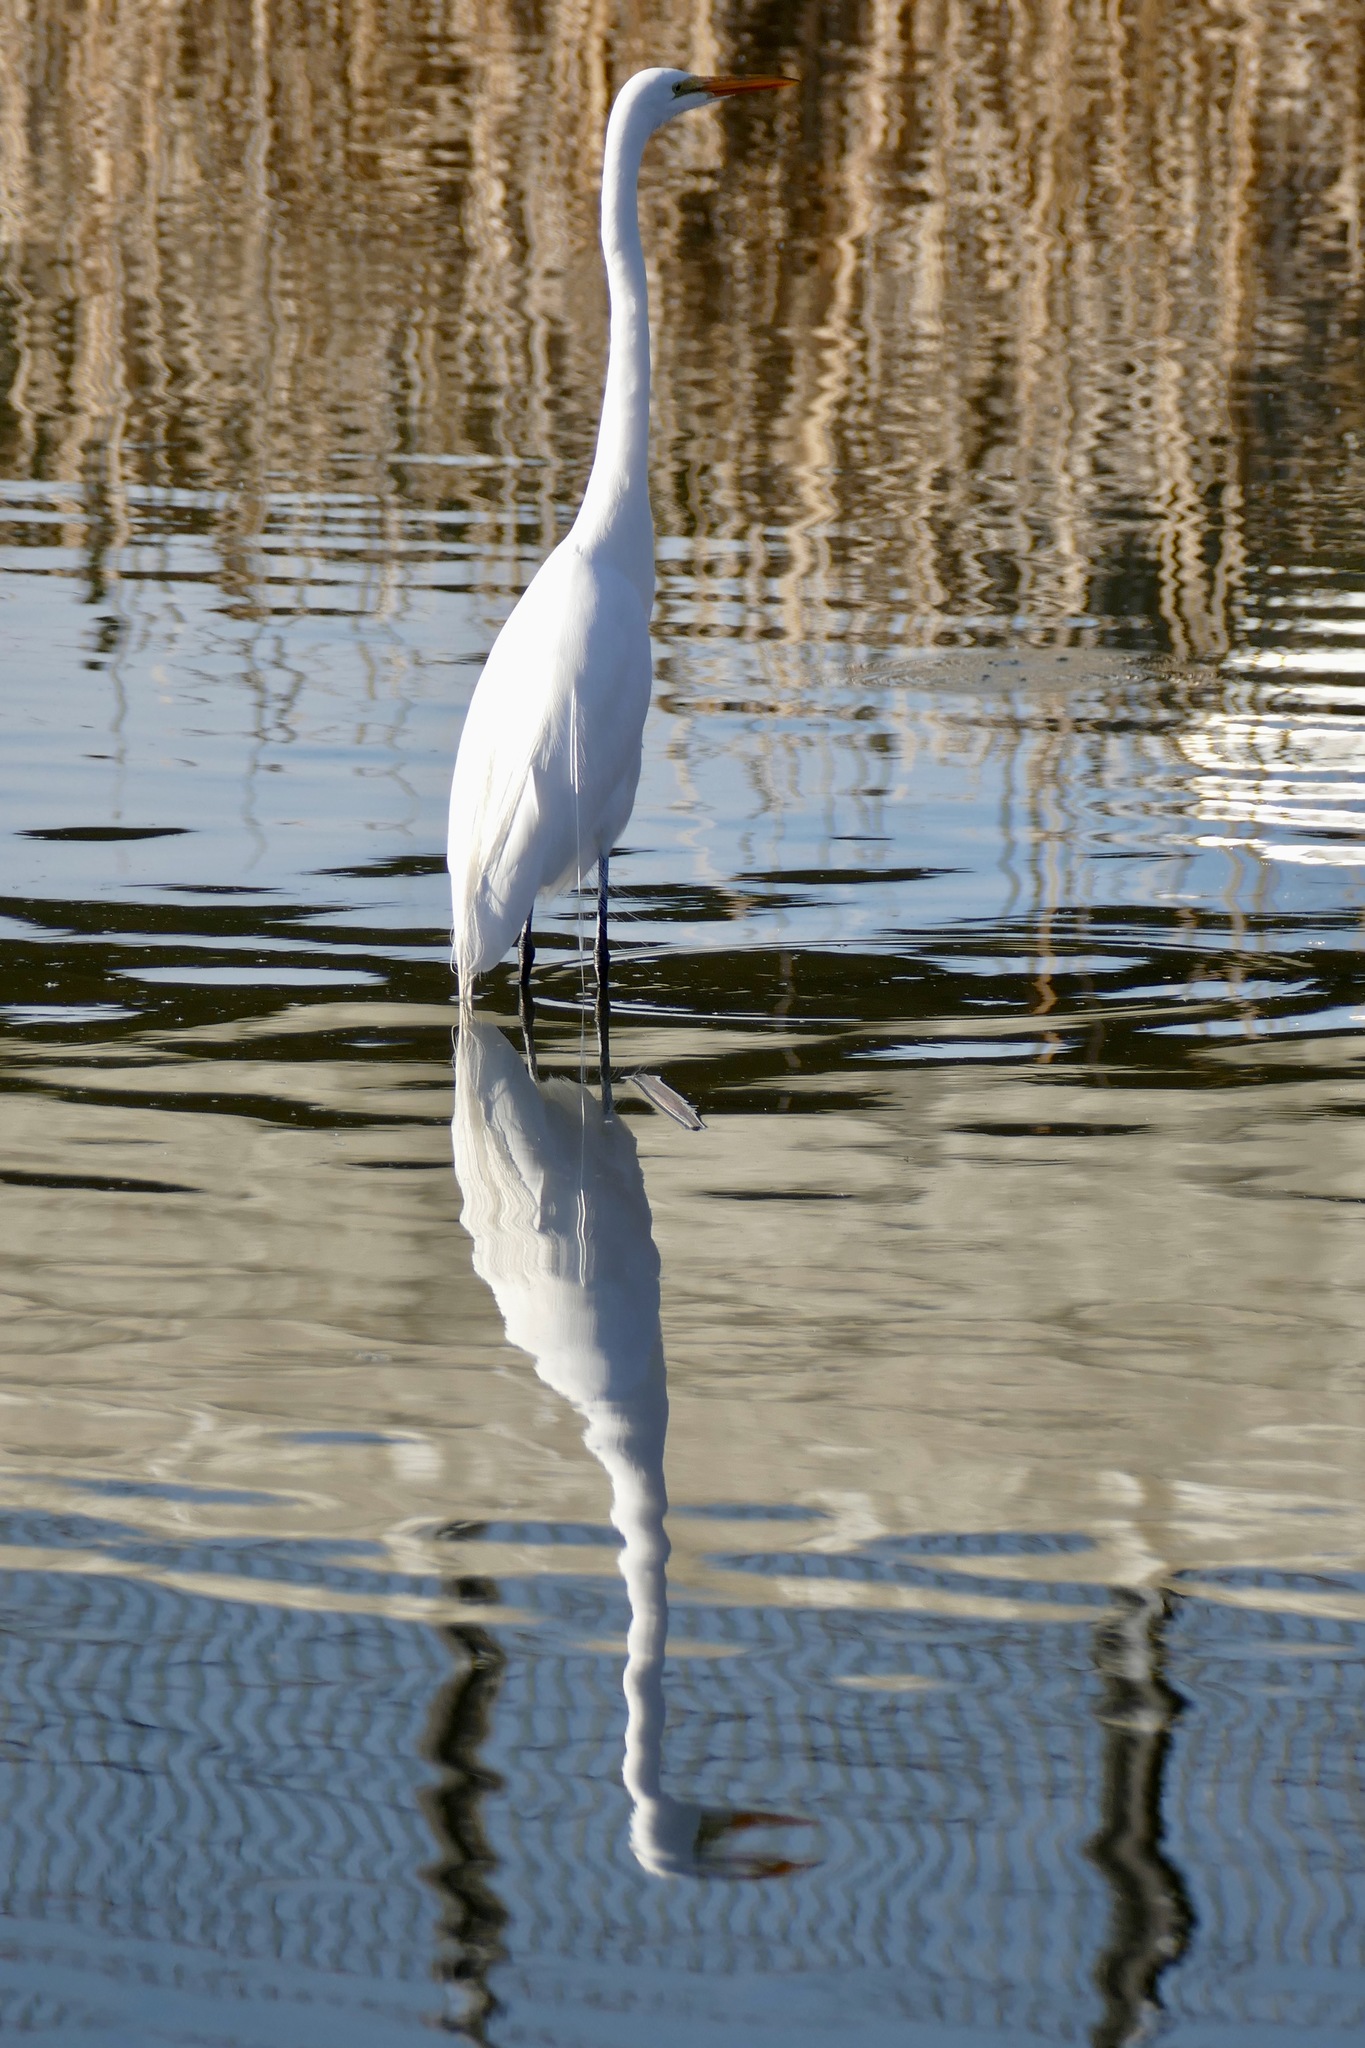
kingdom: Animalia
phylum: Chordata
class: Aves
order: Pelecaniformes
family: Ardeidae
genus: Ardea
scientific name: Ardea alba
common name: Great egret
